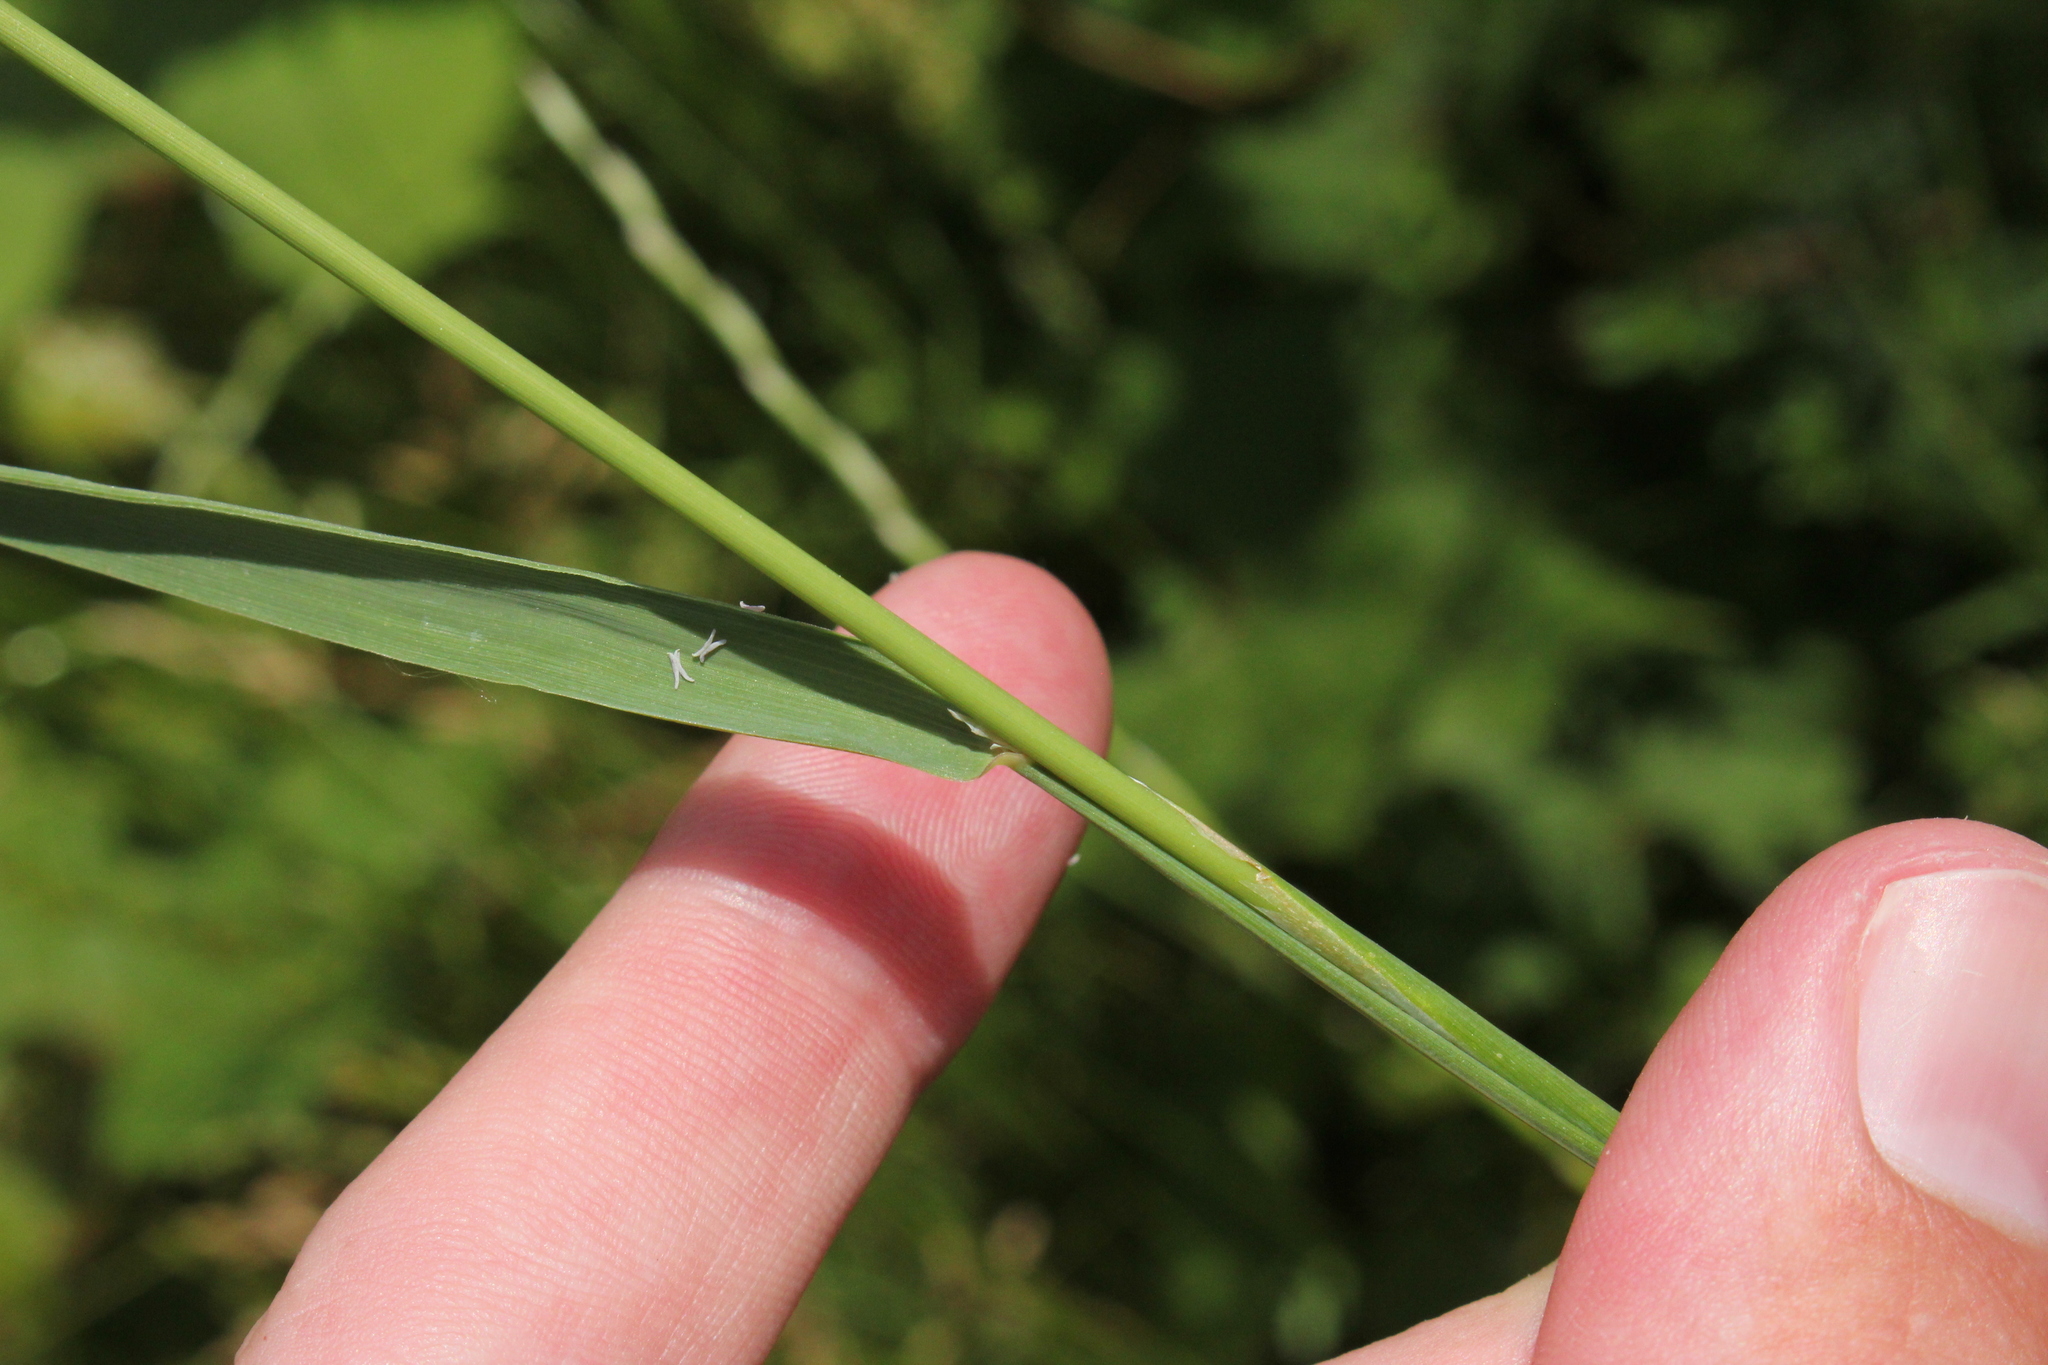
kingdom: Plantae
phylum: Tracheophyta
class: Liliopsida
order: Poales
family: Poaceae
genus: Phleum
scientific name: Phleum pratense
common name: Timothy grass
